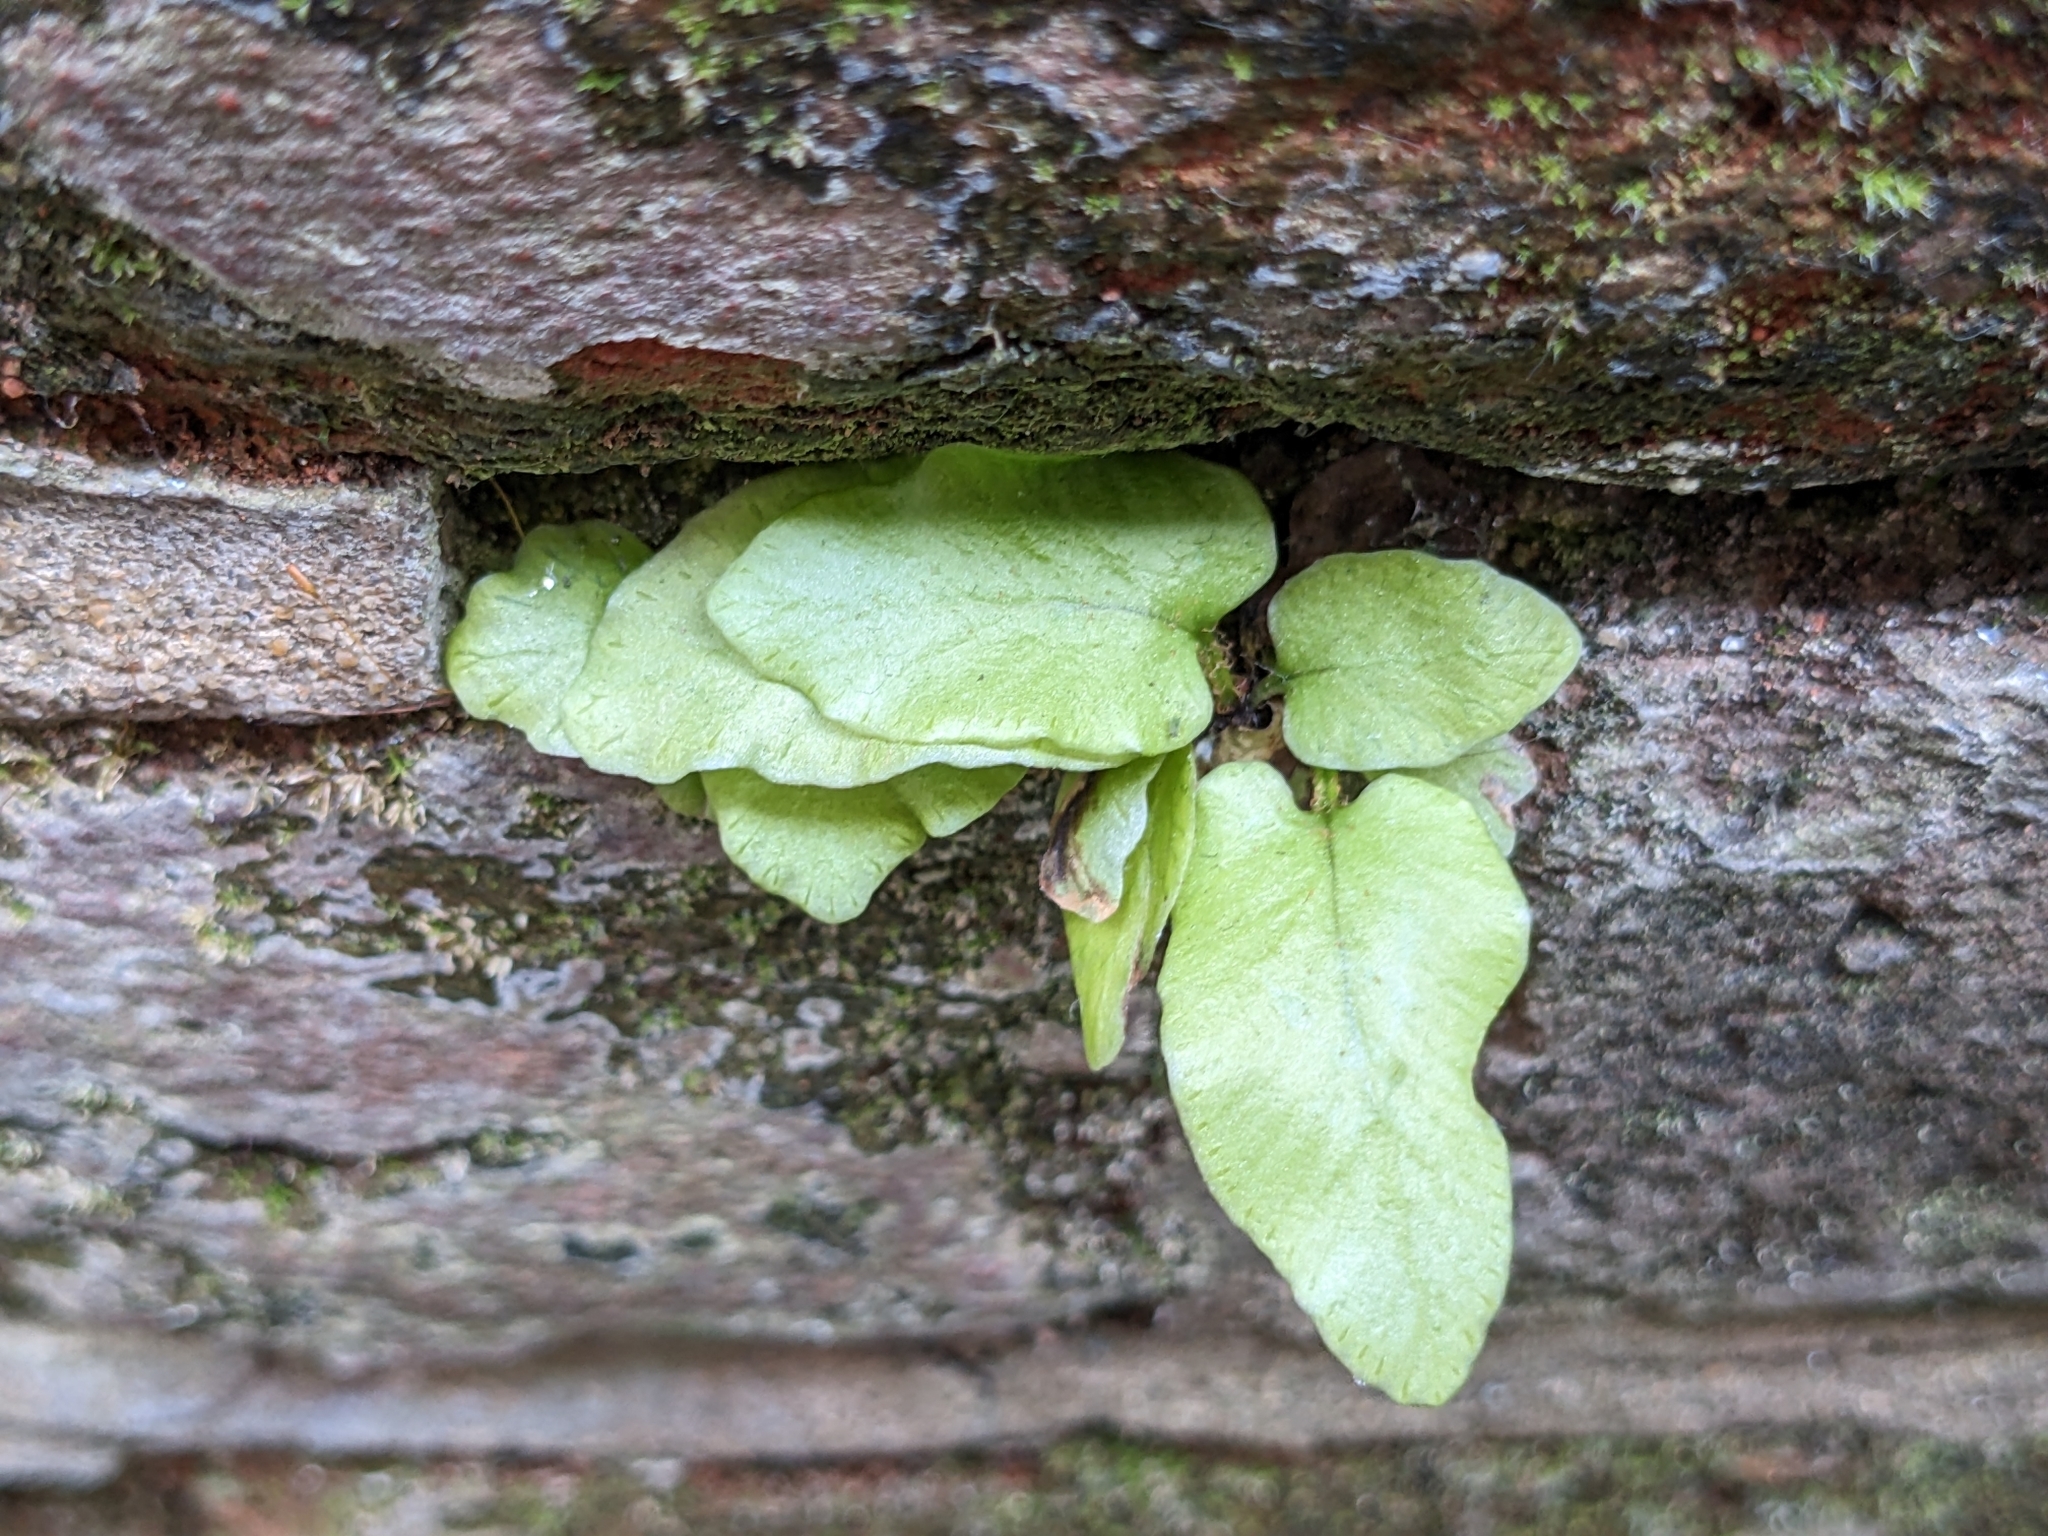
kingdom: Plantae
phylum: Tracheophyta
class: Polypodiopsida
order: Polypodiales
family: Aspleniaceae
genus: Asplenium
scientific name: Asplenium scolopendrium
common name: Hart's-tongue fern
